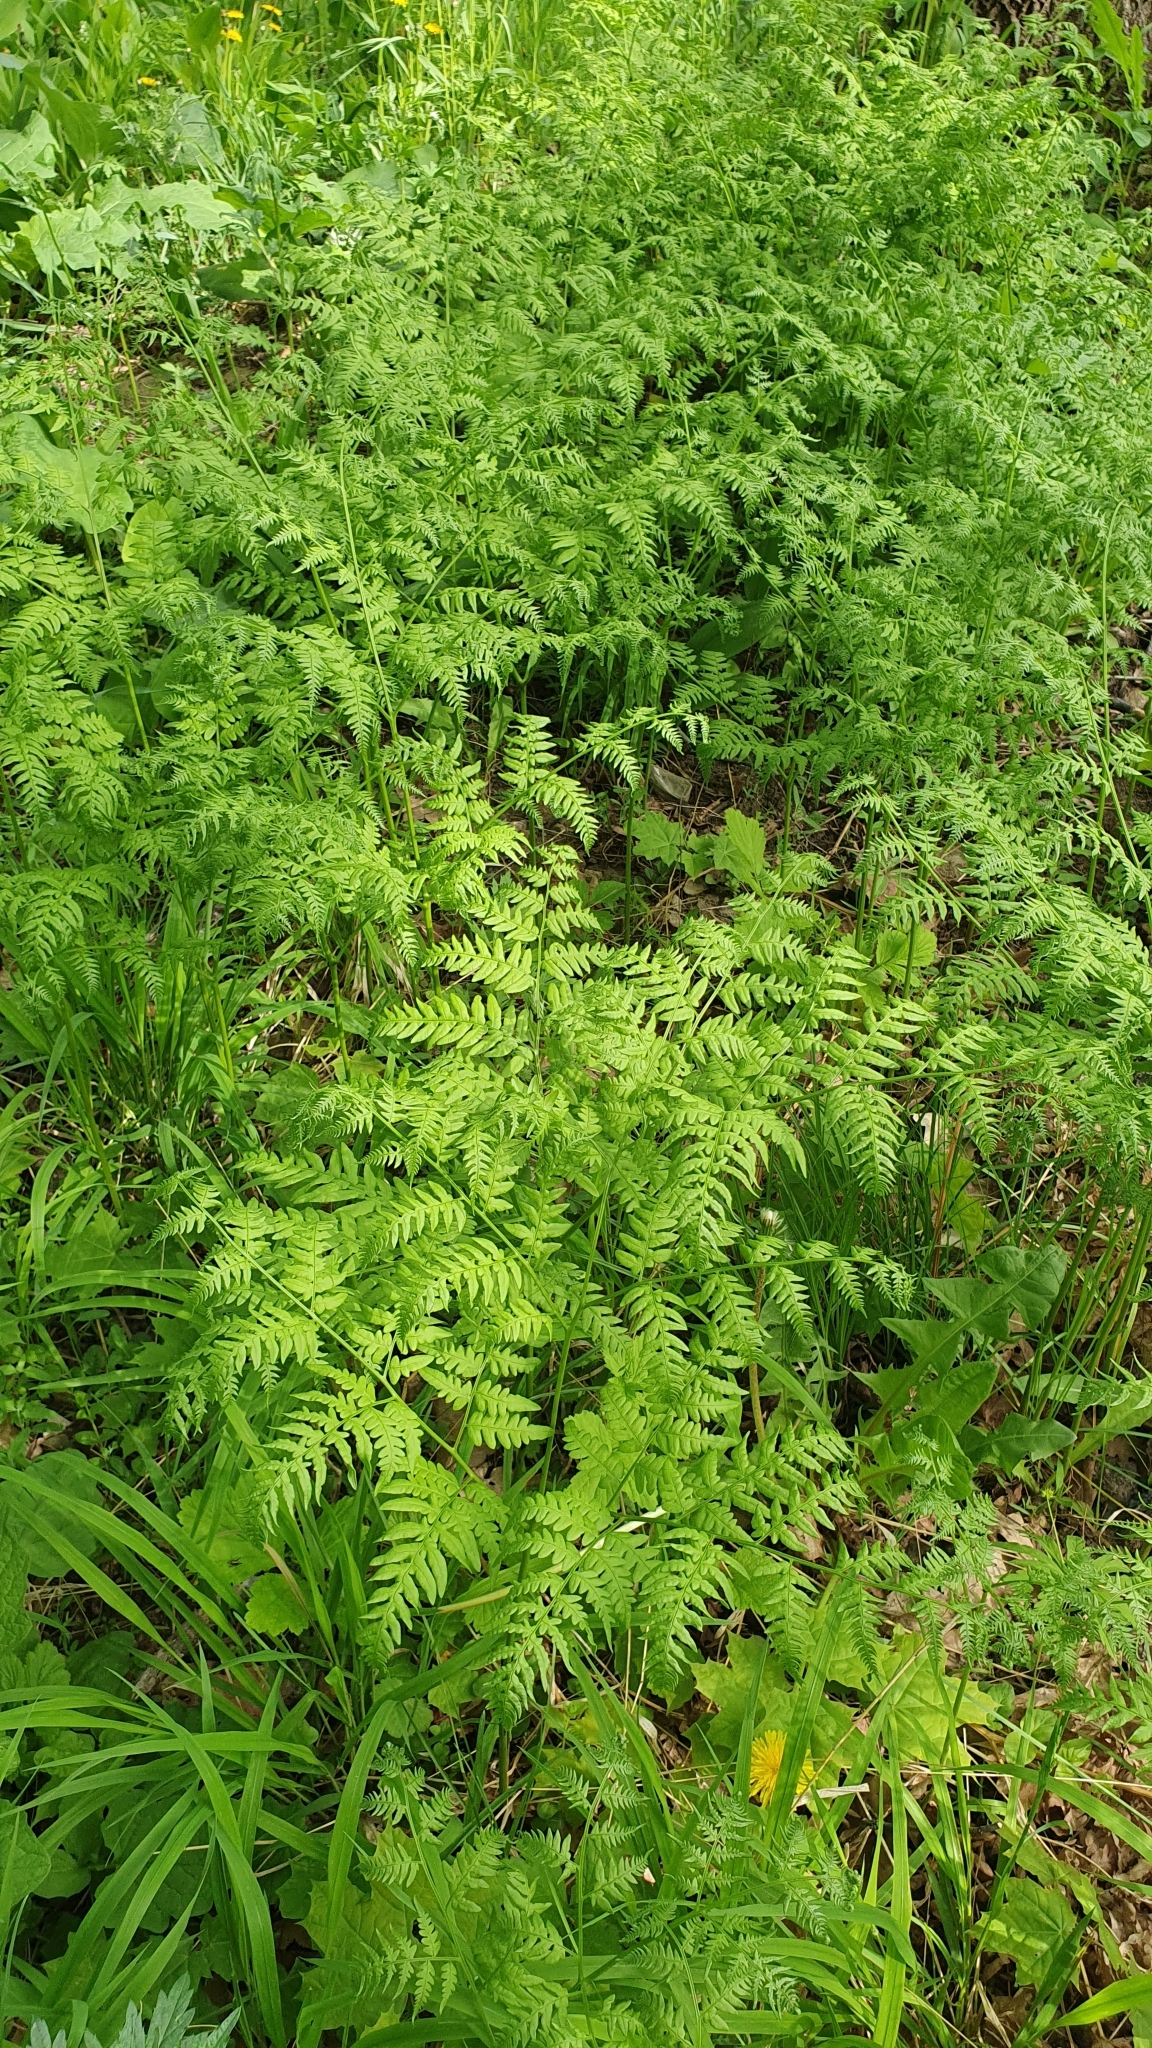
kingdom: Plantae
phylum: Tracheophyta
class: Polypodiopsida
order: Polypodiales
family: Dennstaedtiaceae
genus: Pteridium
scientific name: Pteridium aquilinum
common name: Bracken
